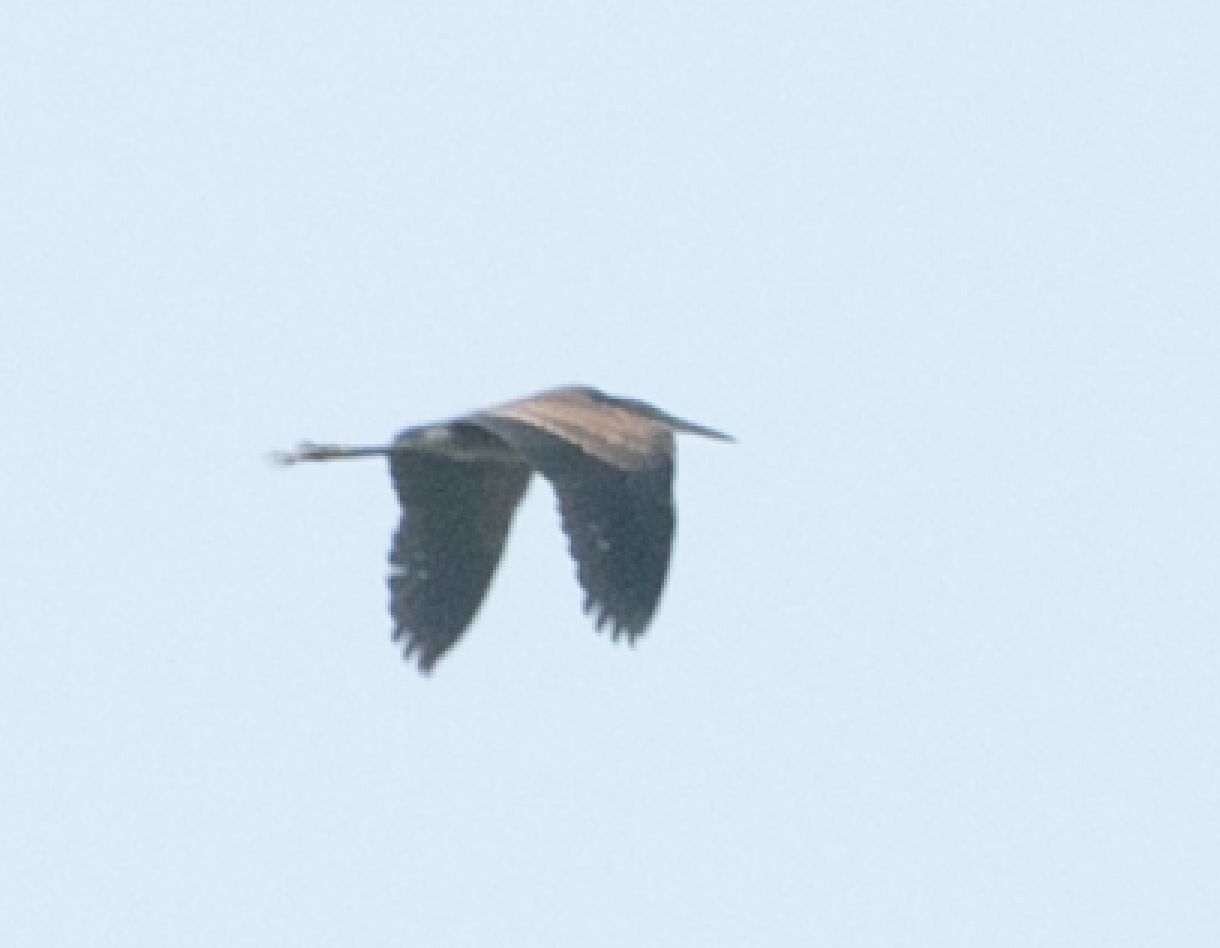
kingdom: Animalia
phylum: Chordata
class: Aves
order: Pelecaniformes
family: Ardeidae
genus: Ardea
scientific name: Ardea purpurea
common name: Purple heron
